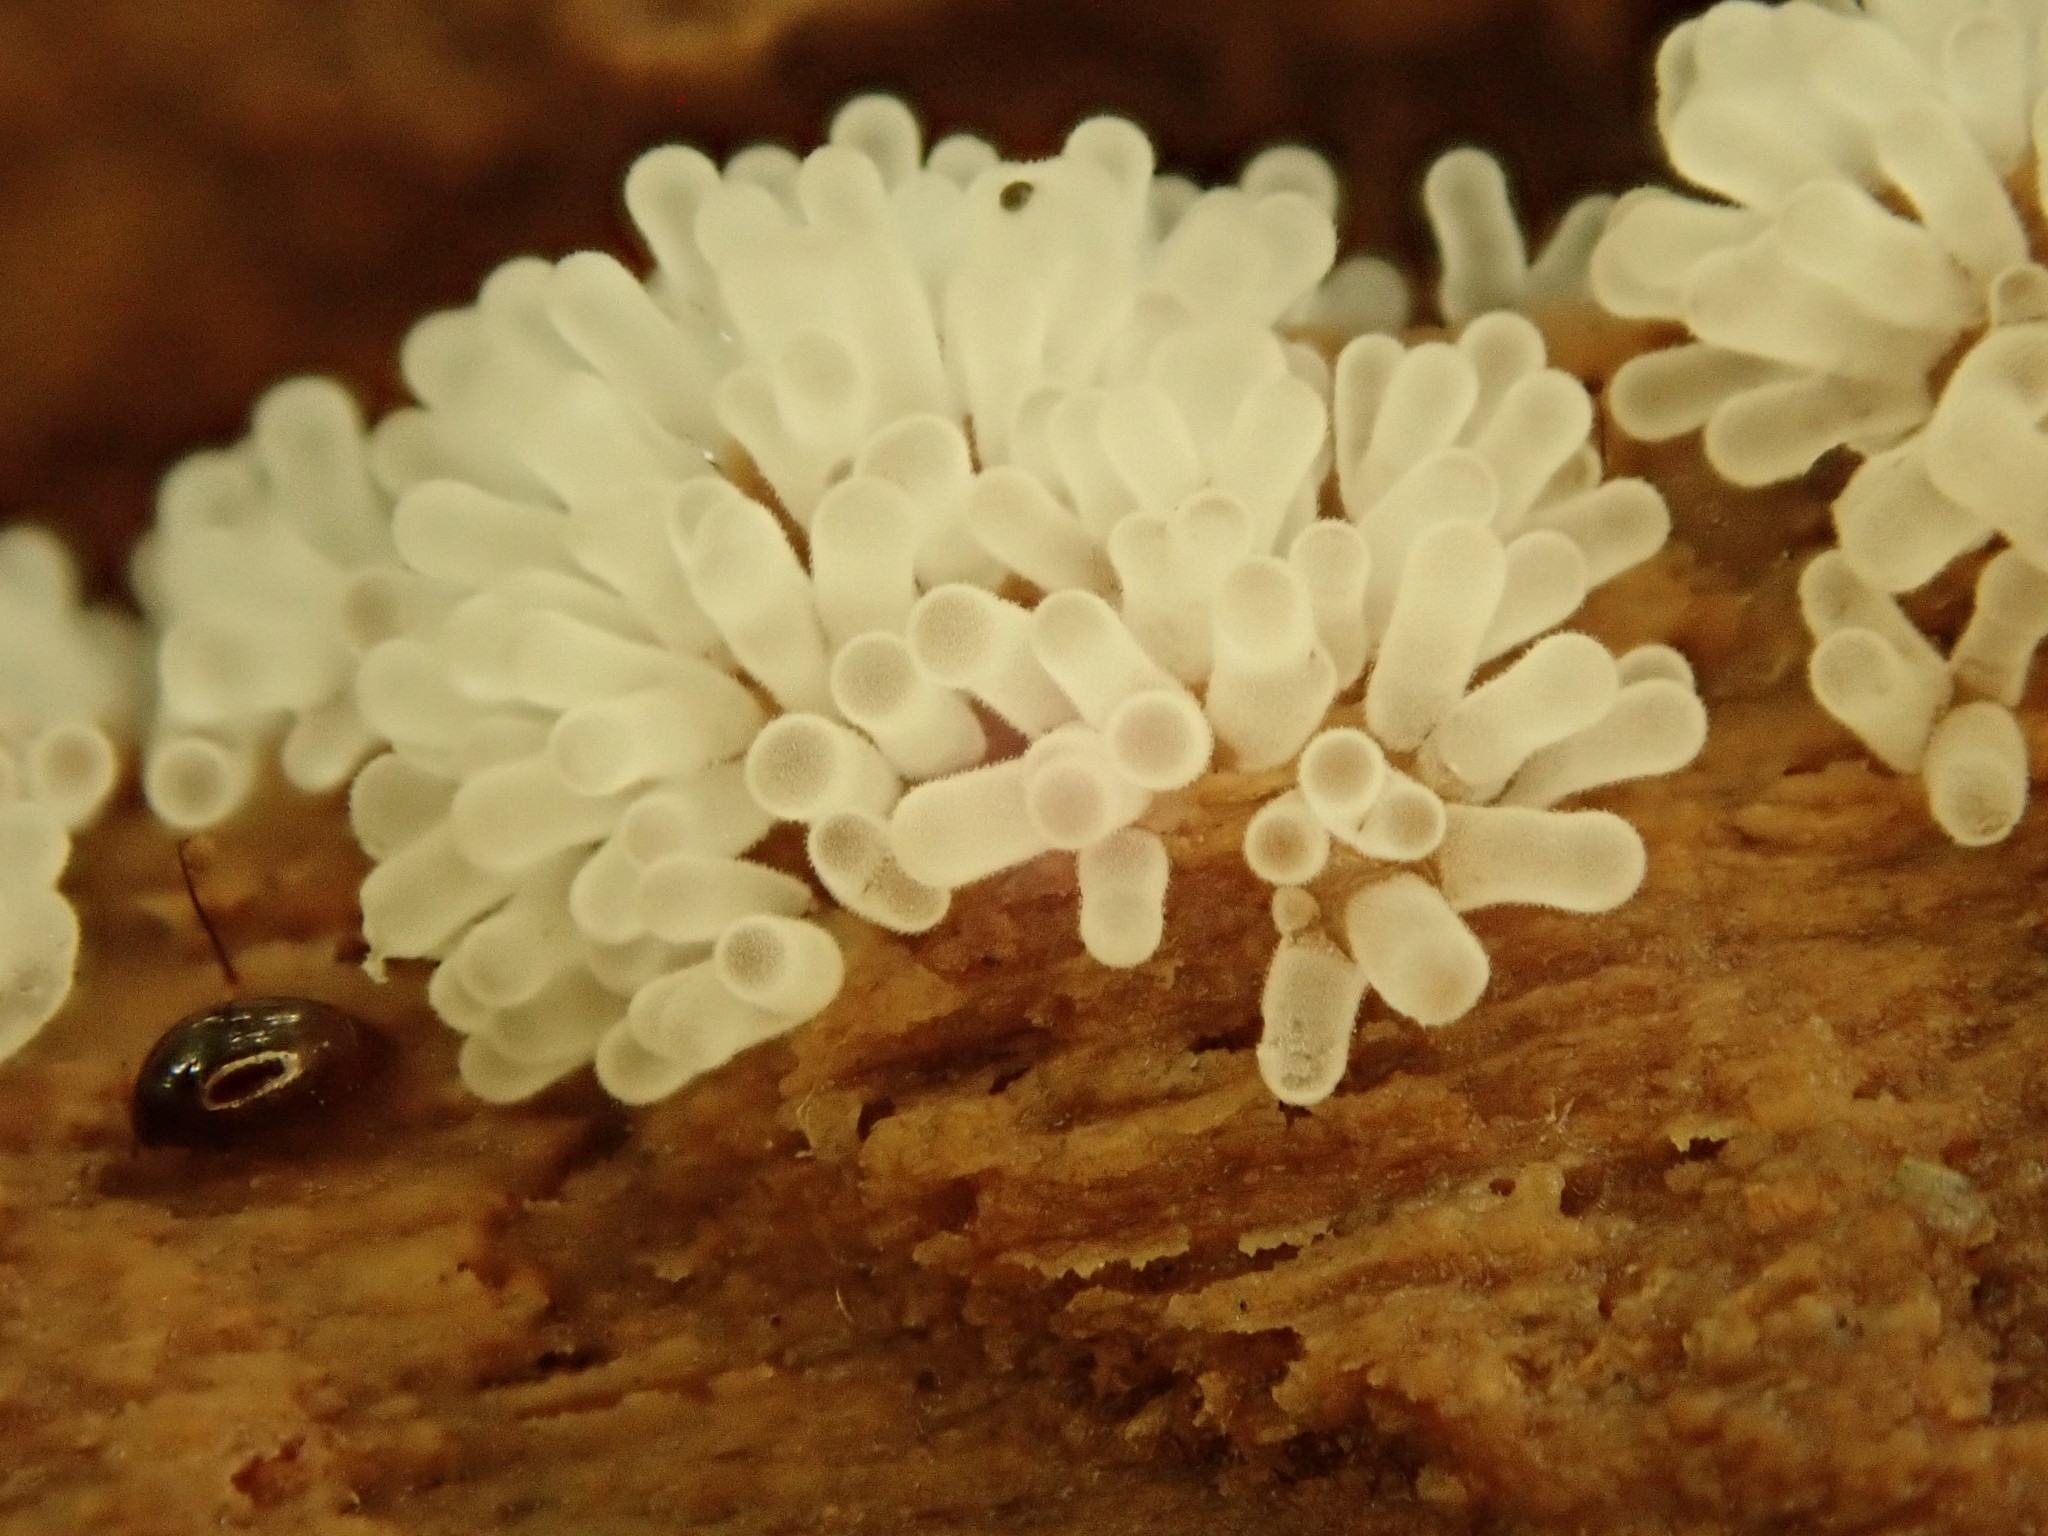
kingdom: Protozoa
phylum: Mycetozoa
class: Protosteliomycetes
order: Ceratiomyxales
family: Ceratiomyxaceae
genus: Ceratiomyxa
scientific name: Ceratiomyxa fruticulosa
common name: Honeycomb coral slime mold
